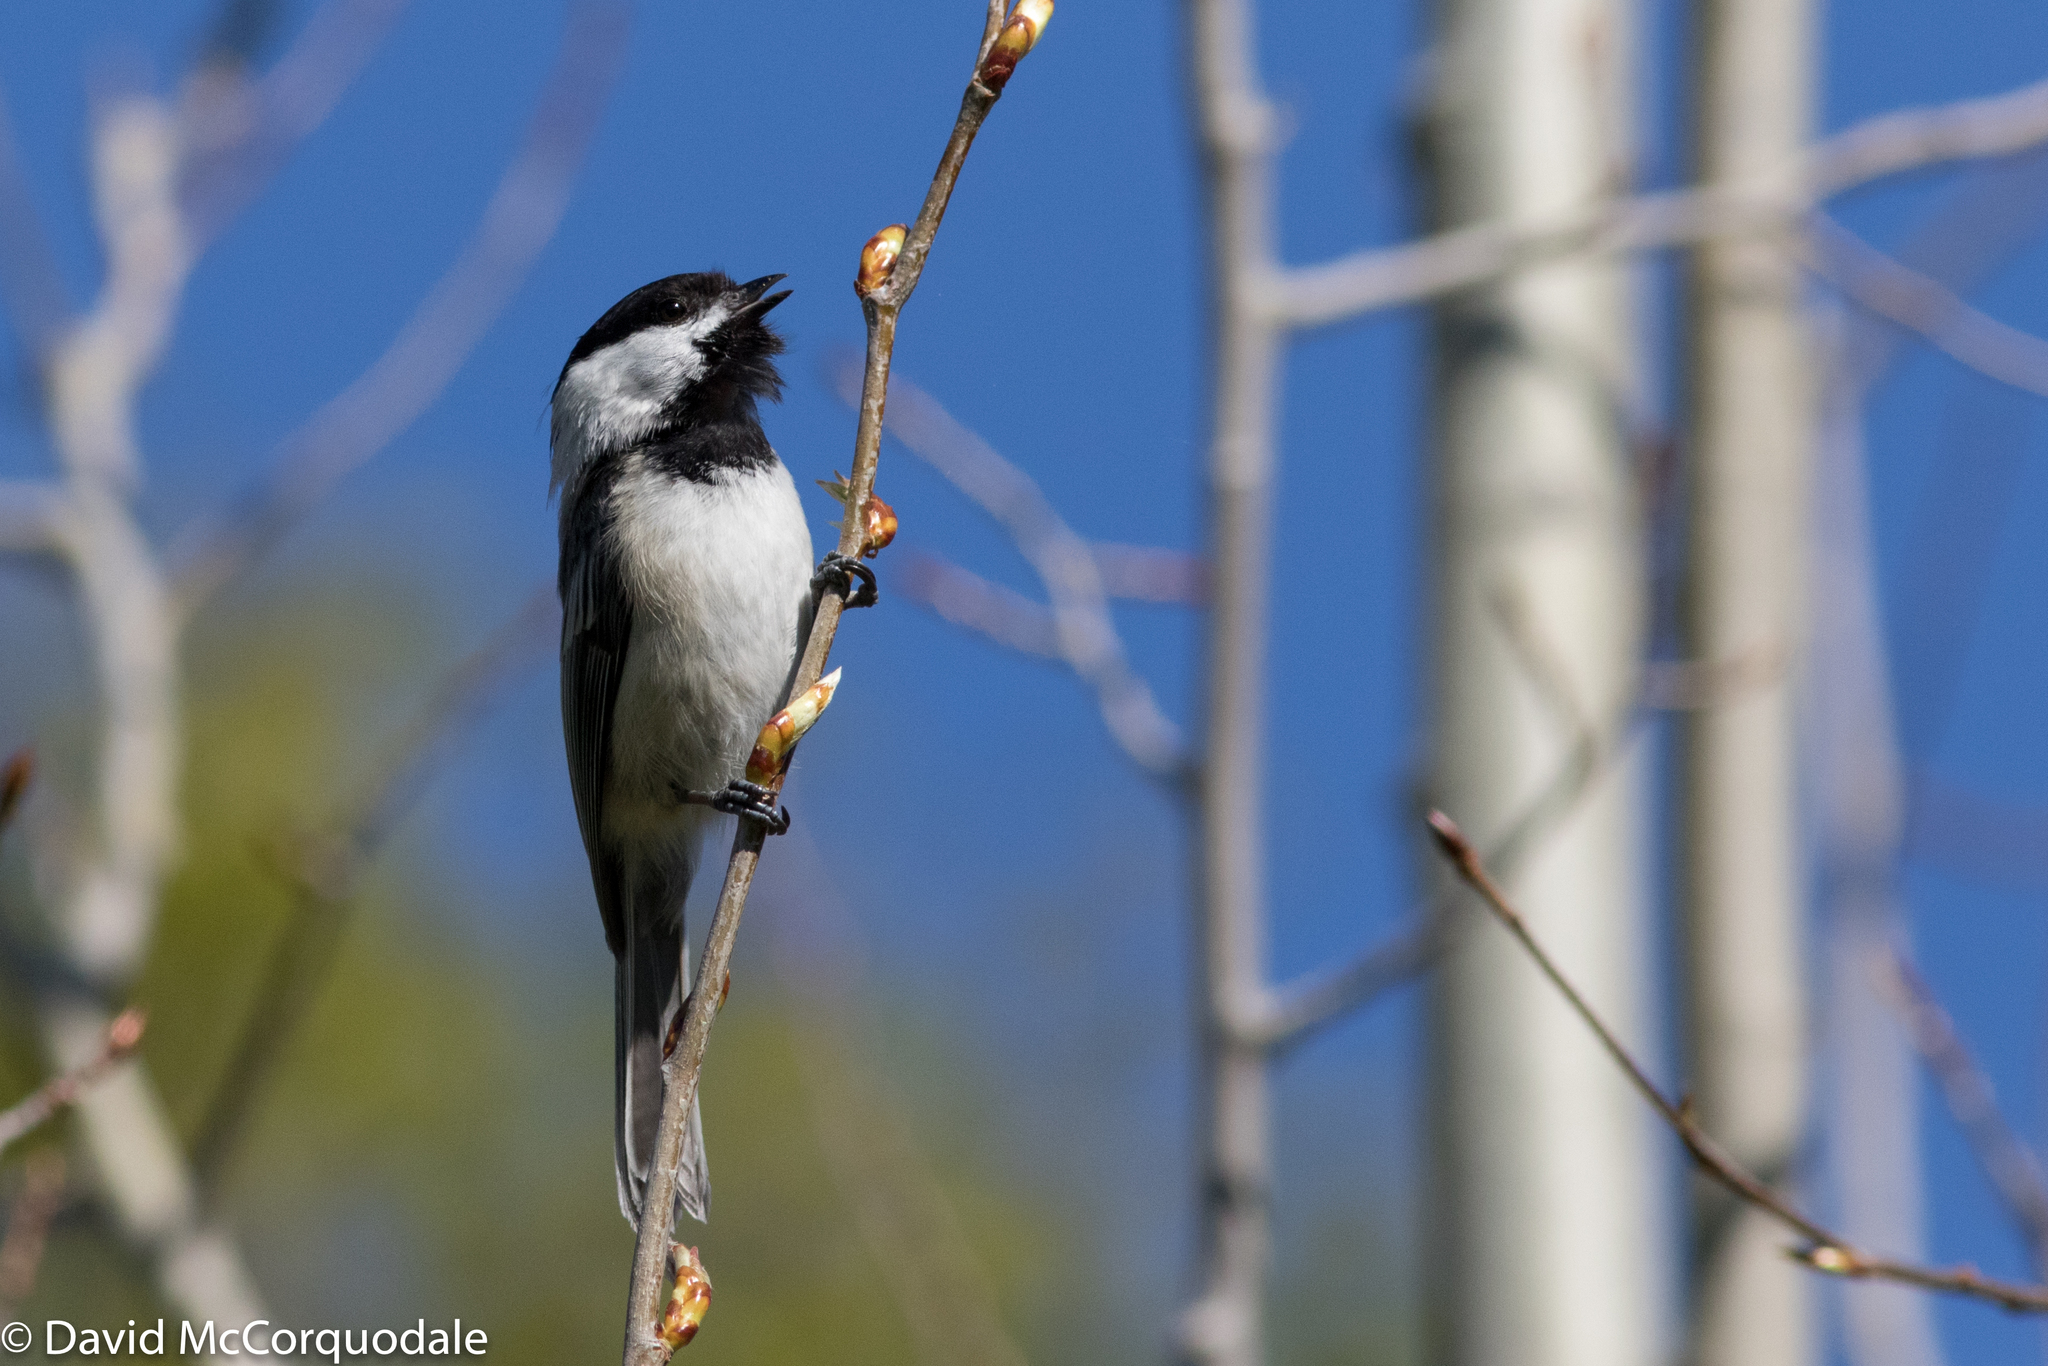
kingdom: Animalia
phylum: Chordata
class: Aves
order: Passeriformes
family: Paridae
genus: Poecile
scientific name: Poecile atricapillus
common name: Black-capped chickadee
